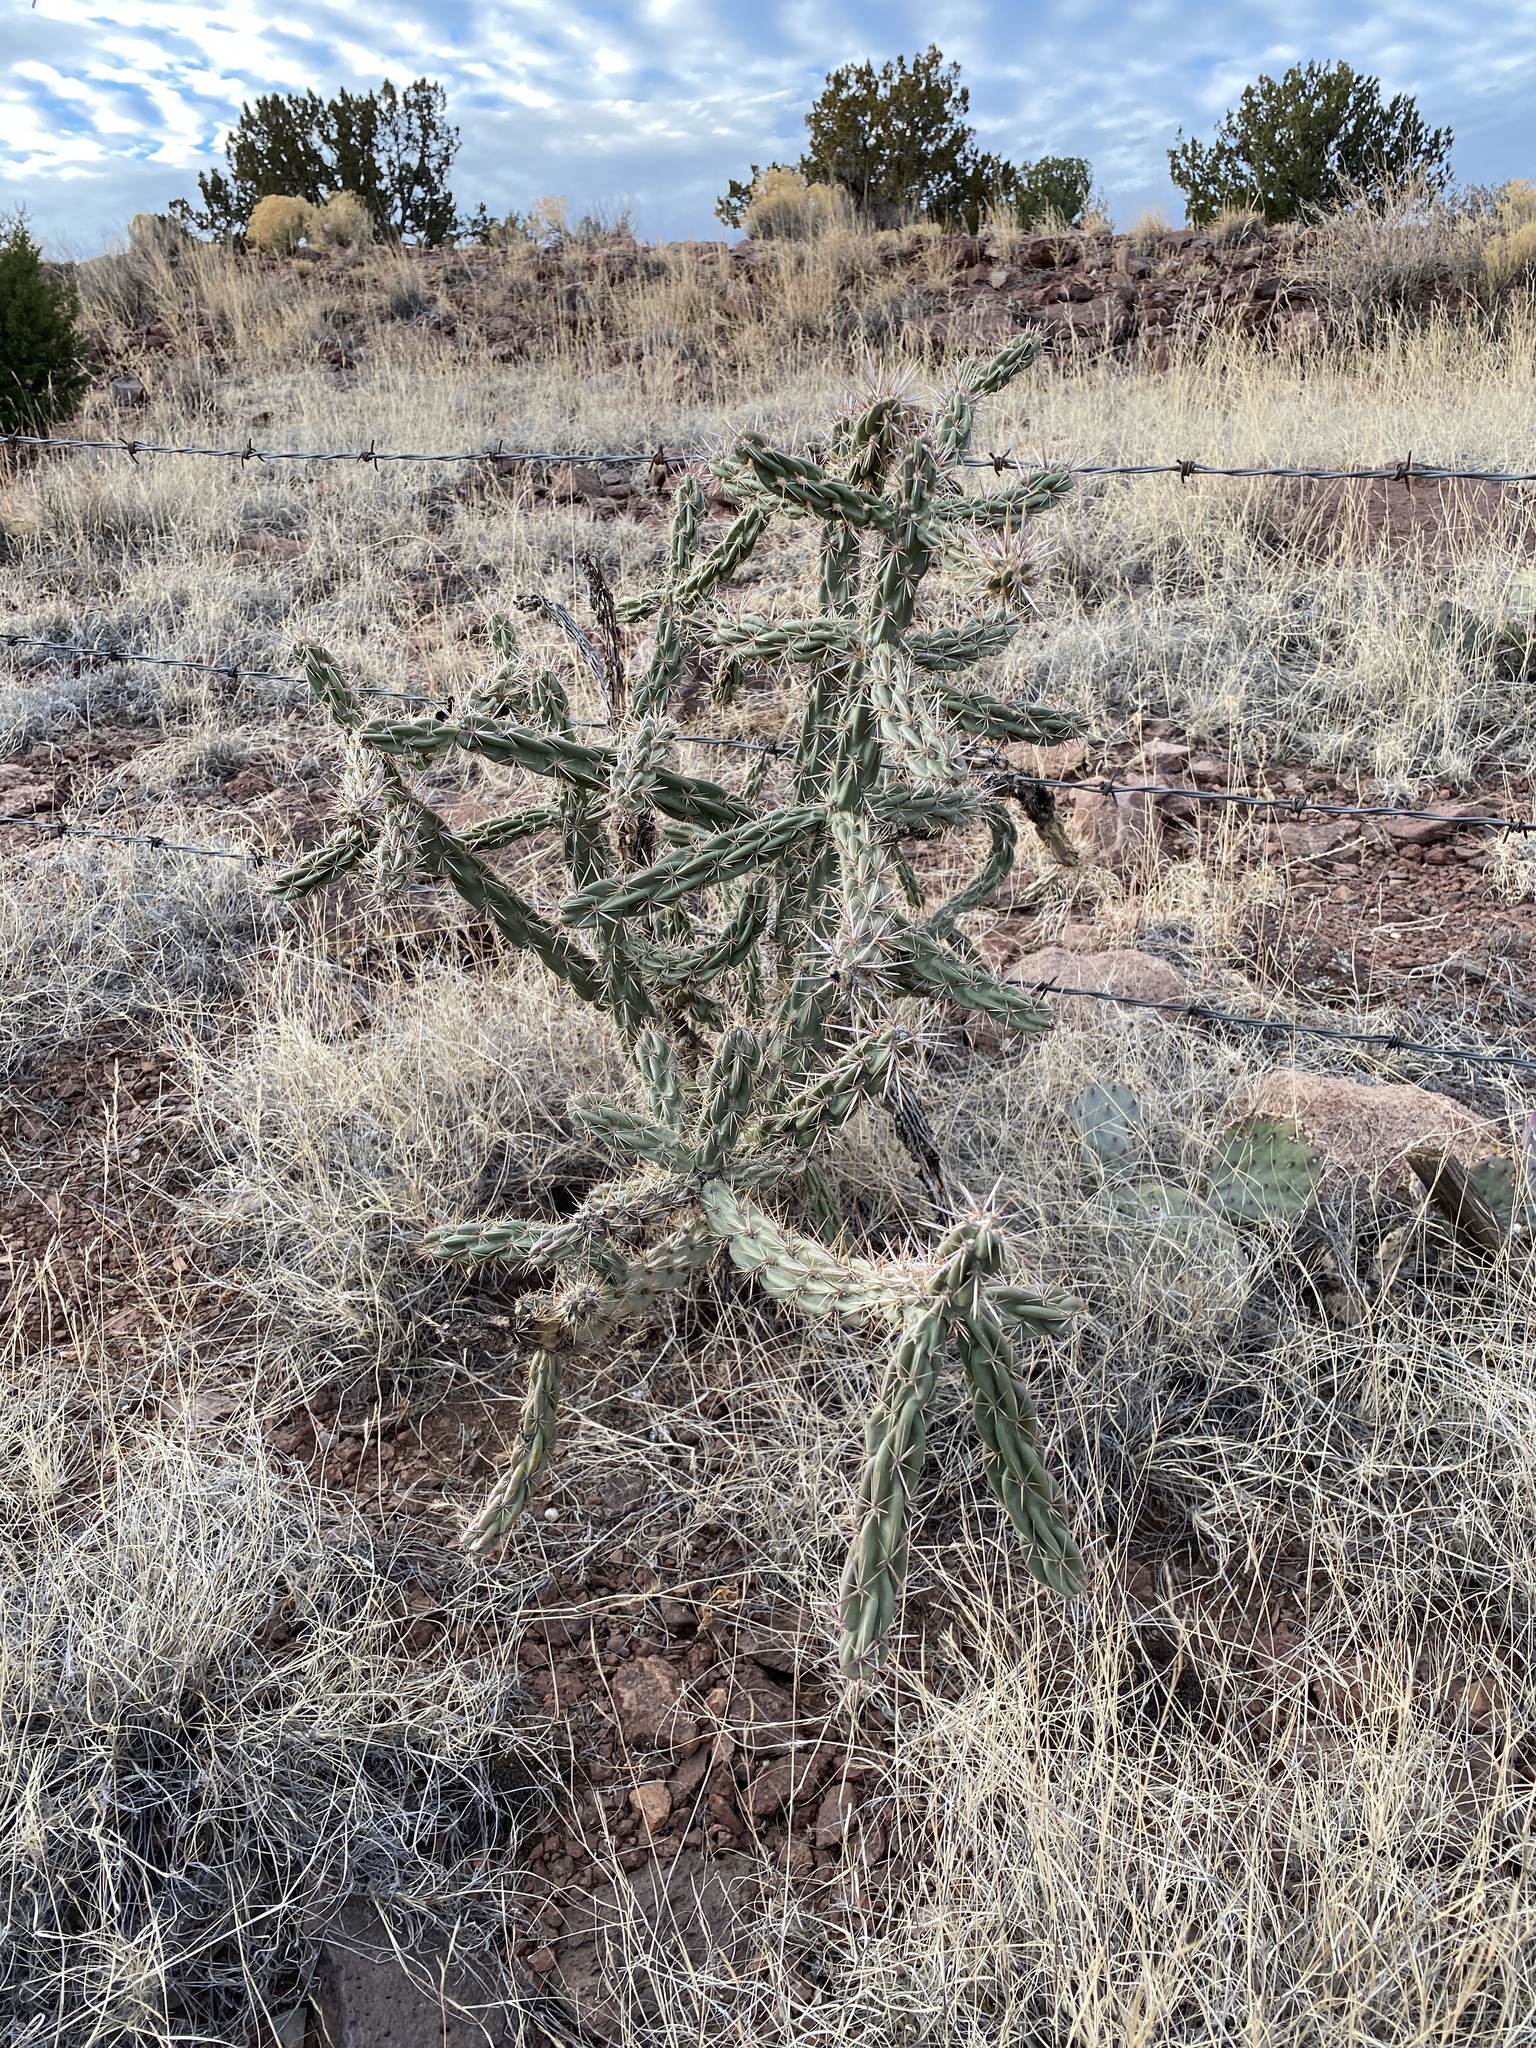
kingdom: Plantae
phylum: Tracheophyta
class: Magnoliopsida
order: Caryophyllales
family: Cactaceae
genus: Cylindropuntia
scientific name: Cylindropuntia imbricata
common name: Candelabrum cactus
